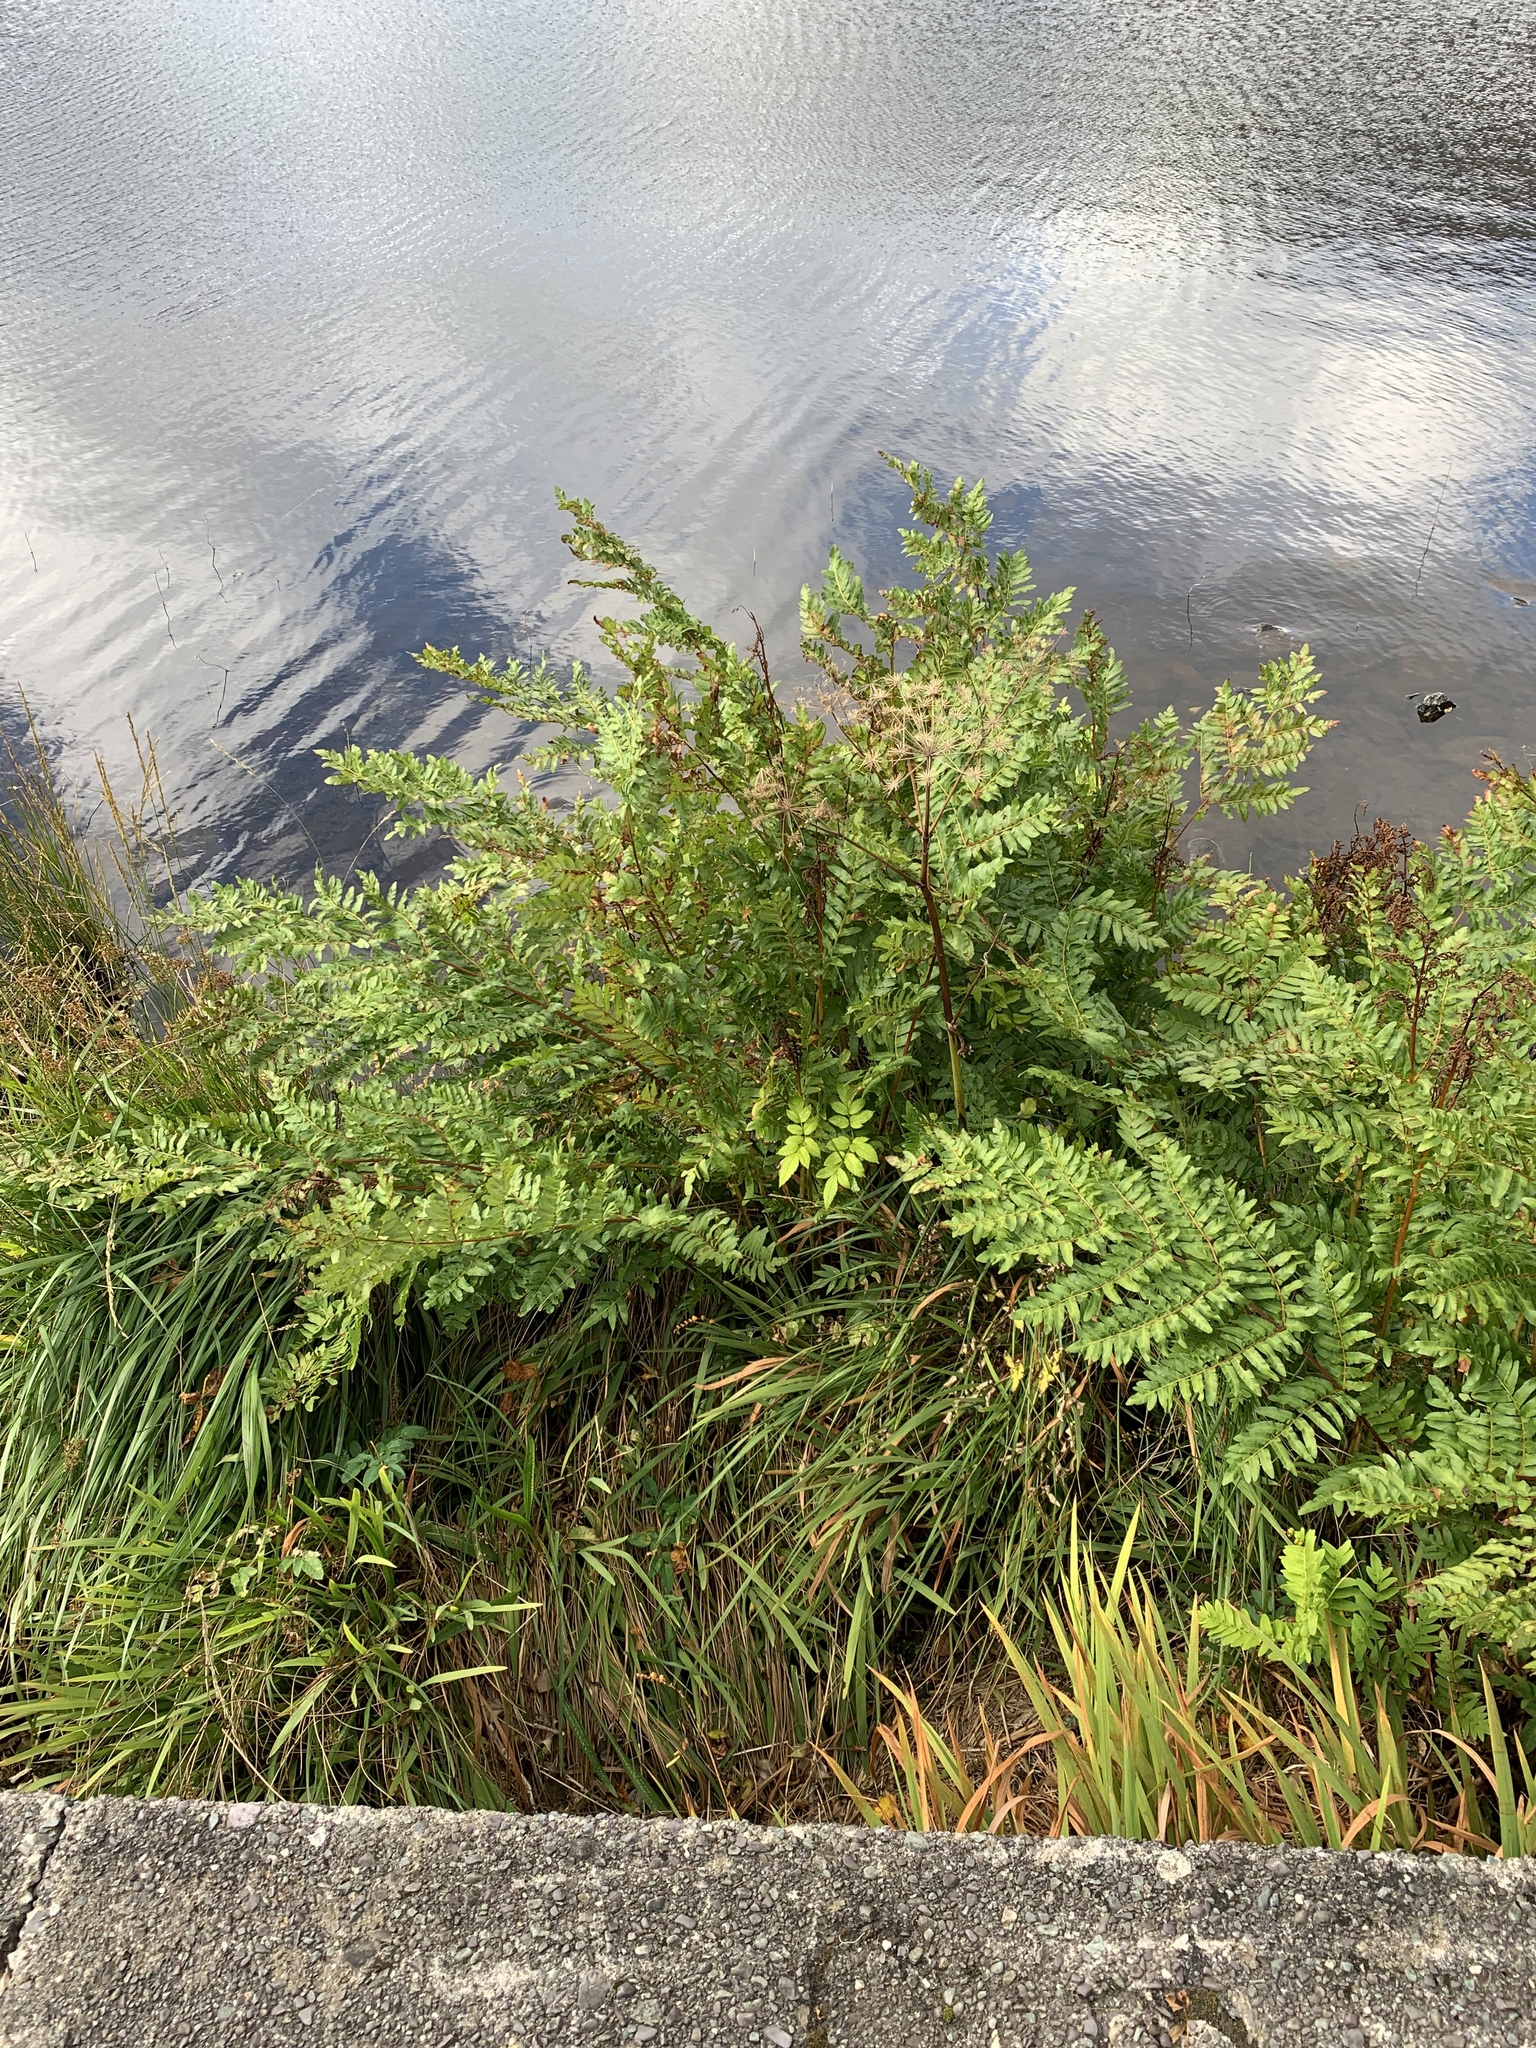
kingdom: Plantae
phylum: Tracheophyta
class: Polypodiopsida
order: Osmundales
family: Osmundaceae
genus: Osmunda
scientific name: Osmunda regalis
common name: Royal fern
